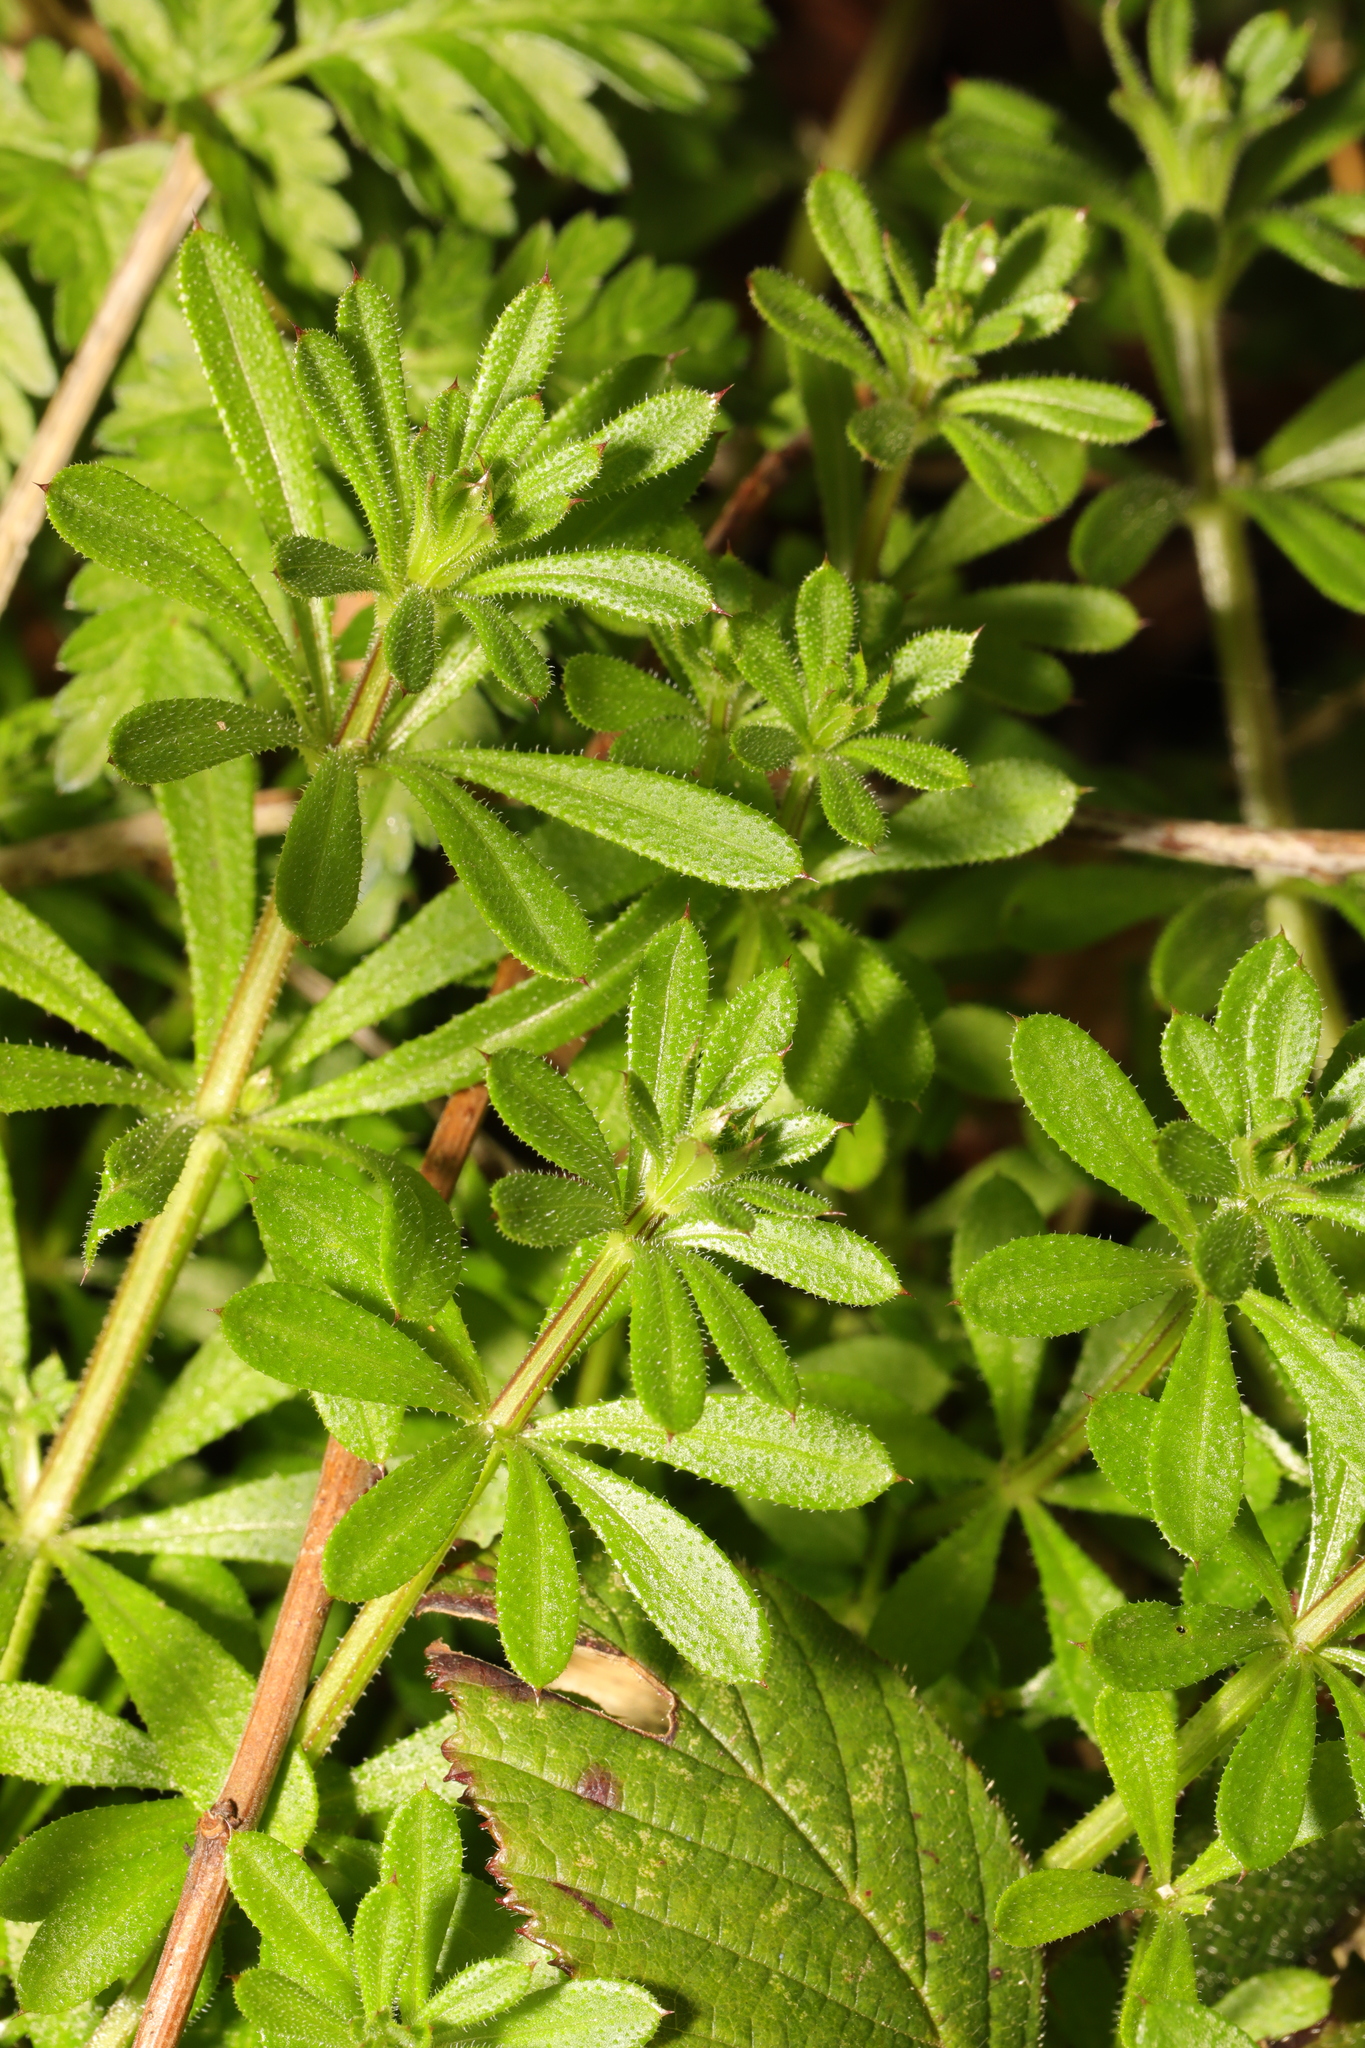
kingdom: Plantae
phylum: Tracheophyta
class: Magnoliopsida
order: Gentianales
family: Rubiaceae
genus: Galium
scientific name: Galium aparine
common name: Cleavers
